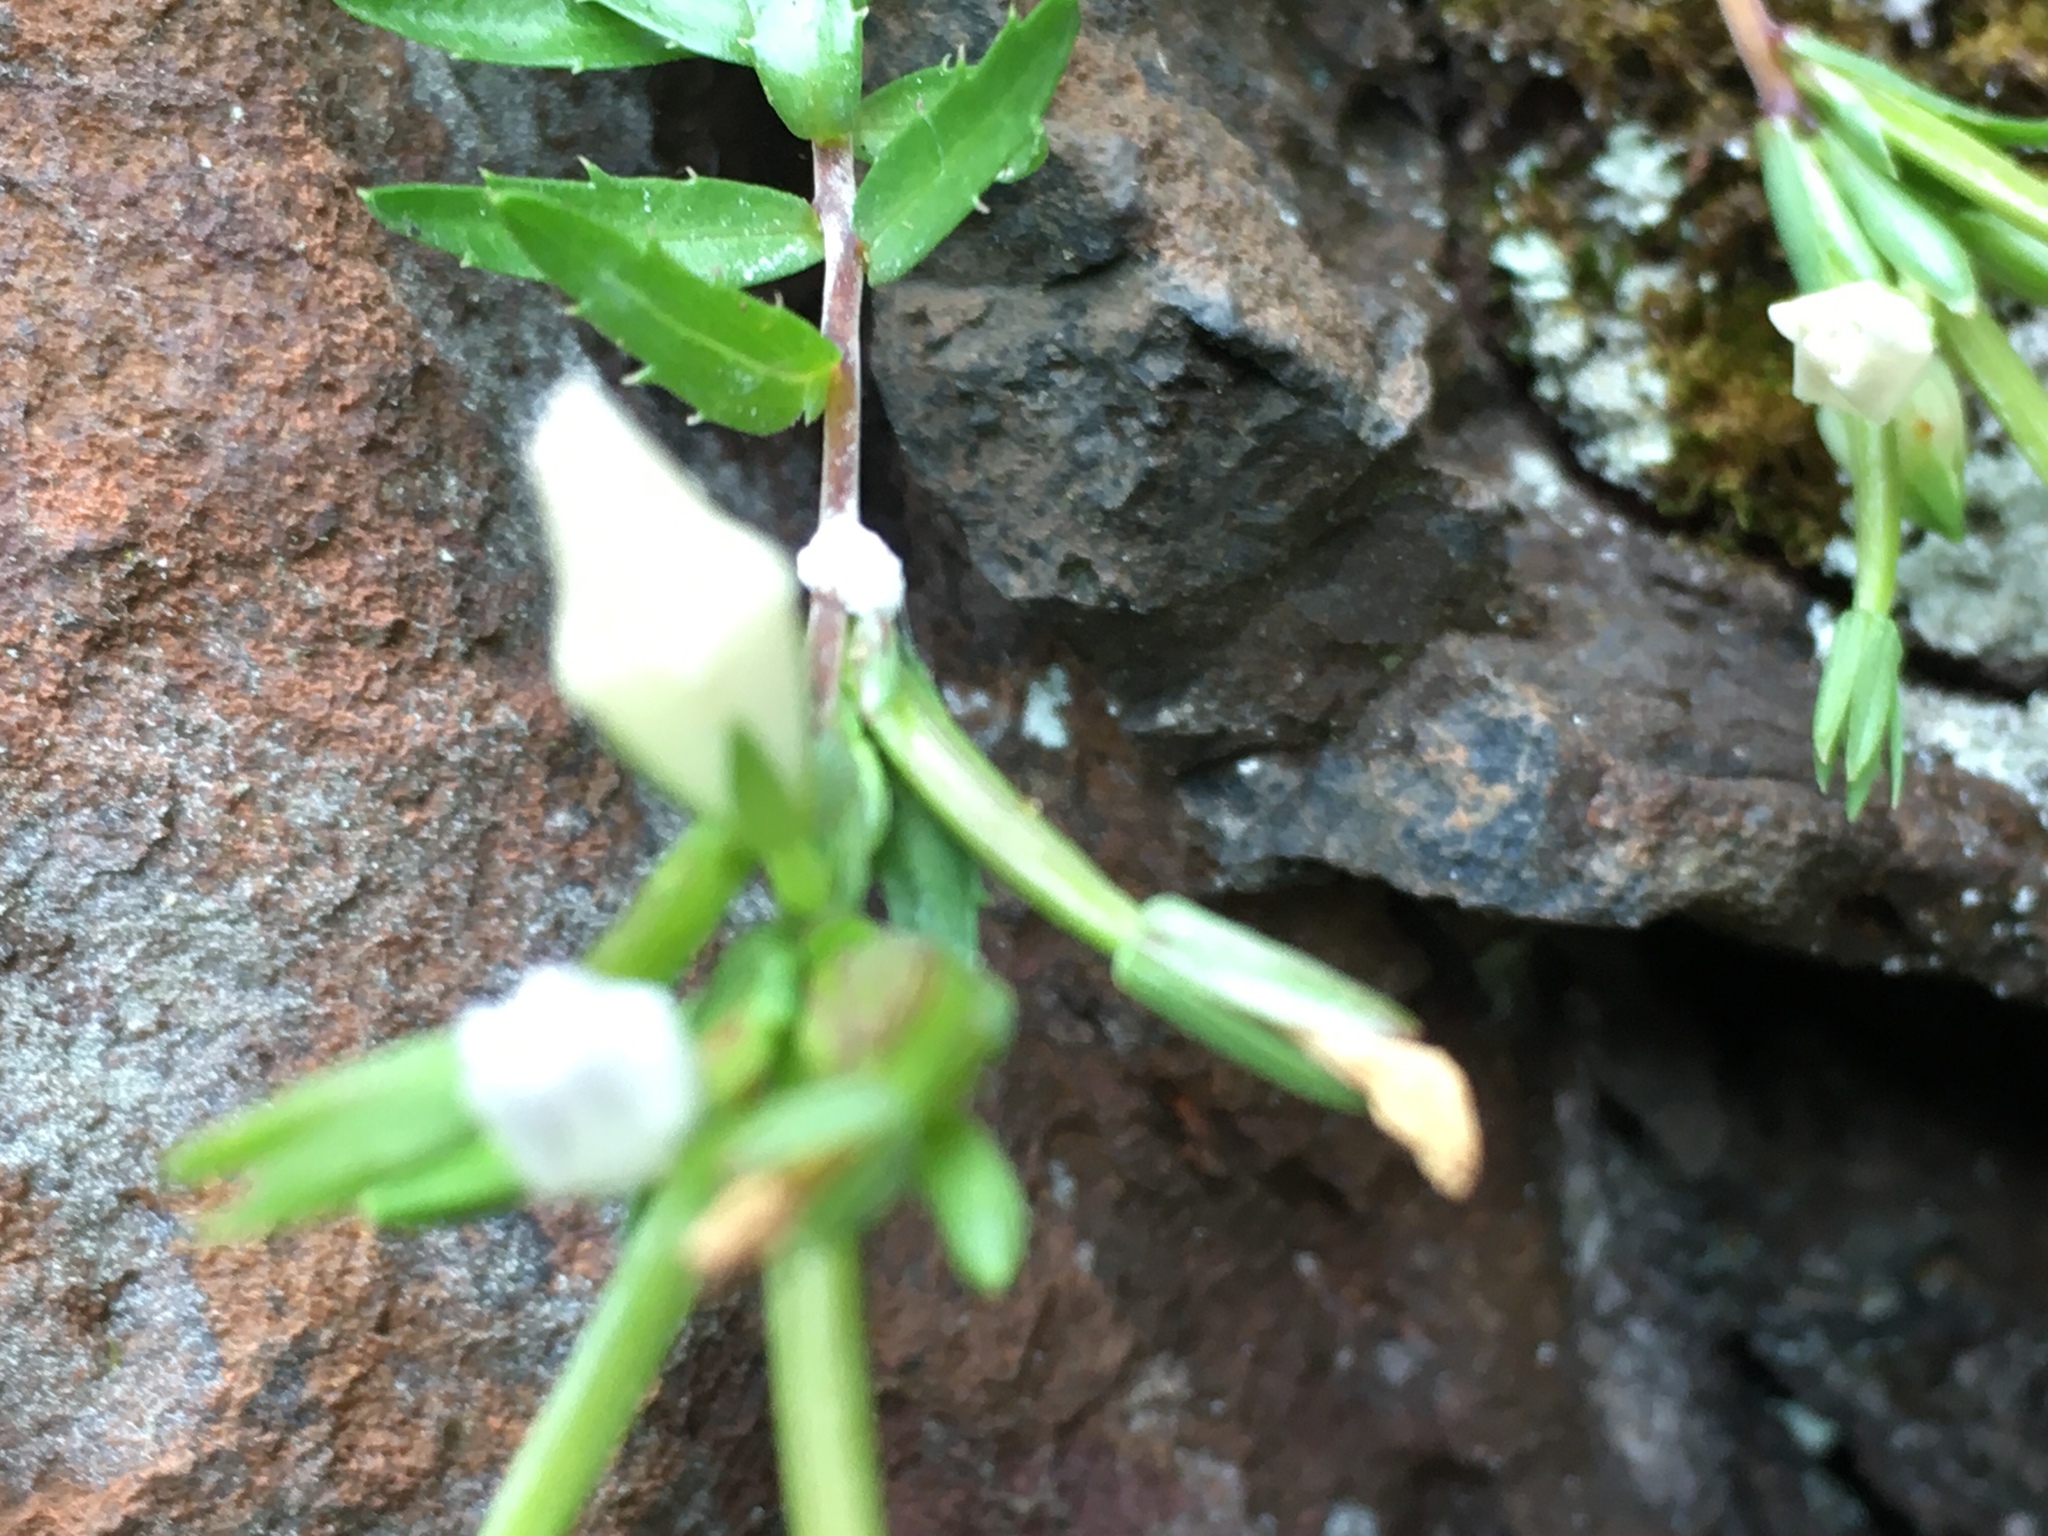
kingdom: Plantae
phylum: Tracheophyta
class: Magnoliopsida
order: Asterales
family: Campanulaceae
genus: Prismatocarpus
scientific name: Prismatocarpus nitidus
